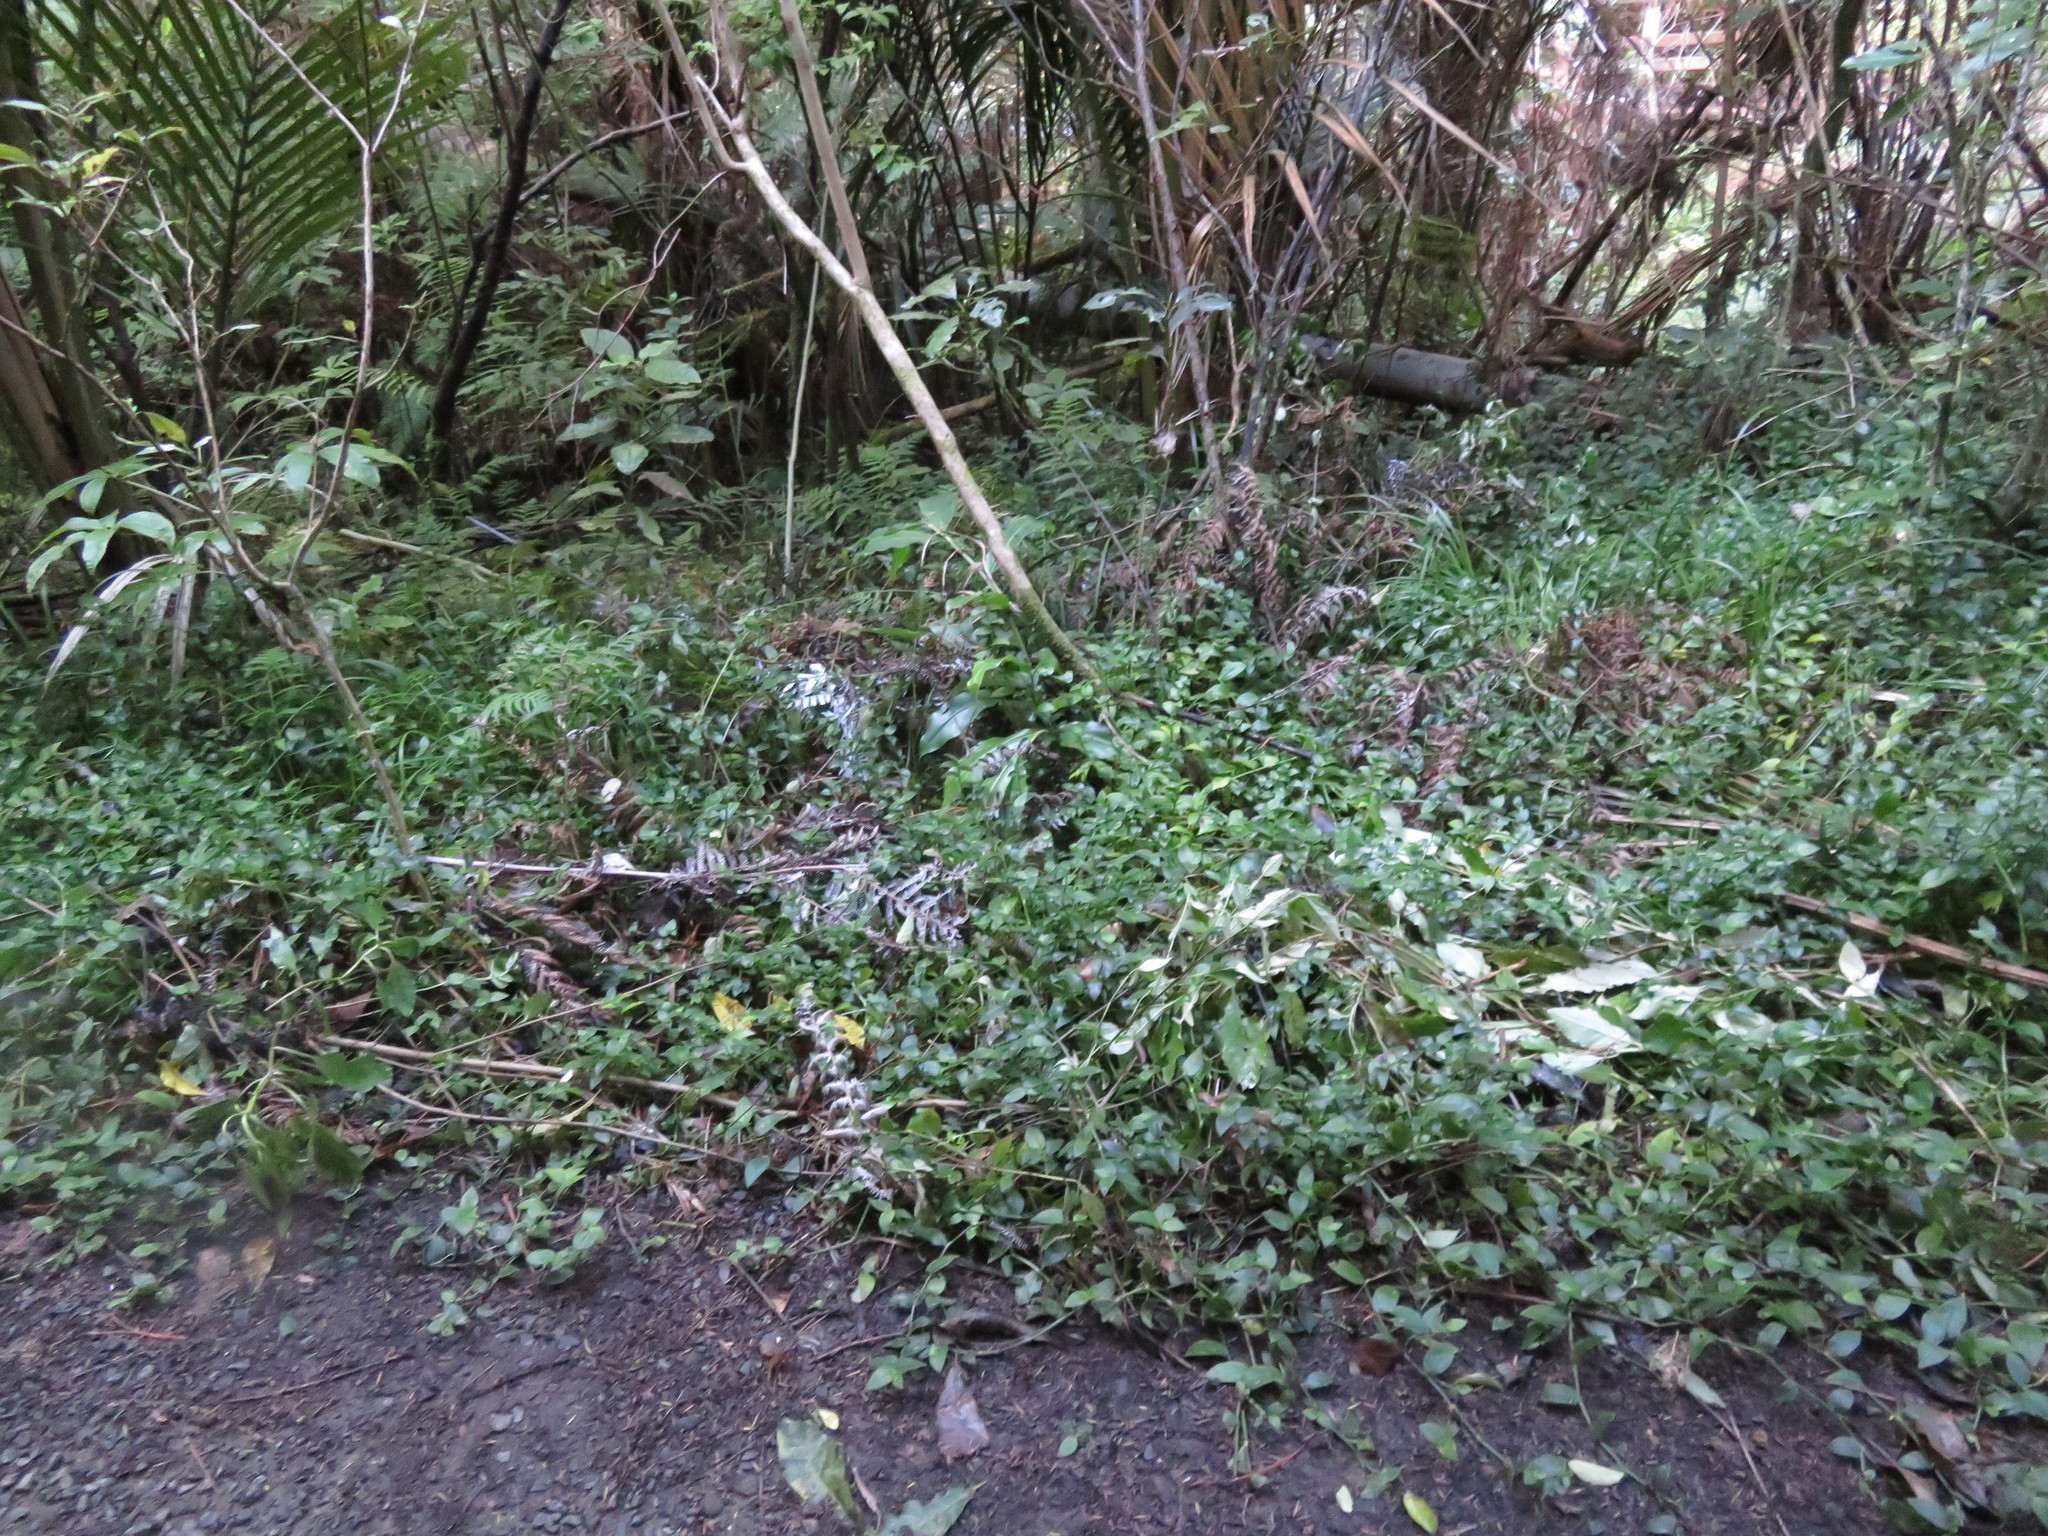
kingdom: Plantae
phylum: Tracheophyta
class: Liliopsida
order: Commelinales
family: Commelinaceae
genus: Tradescantia
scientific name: Tradescantia fluminensis
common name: Wandering-jew
